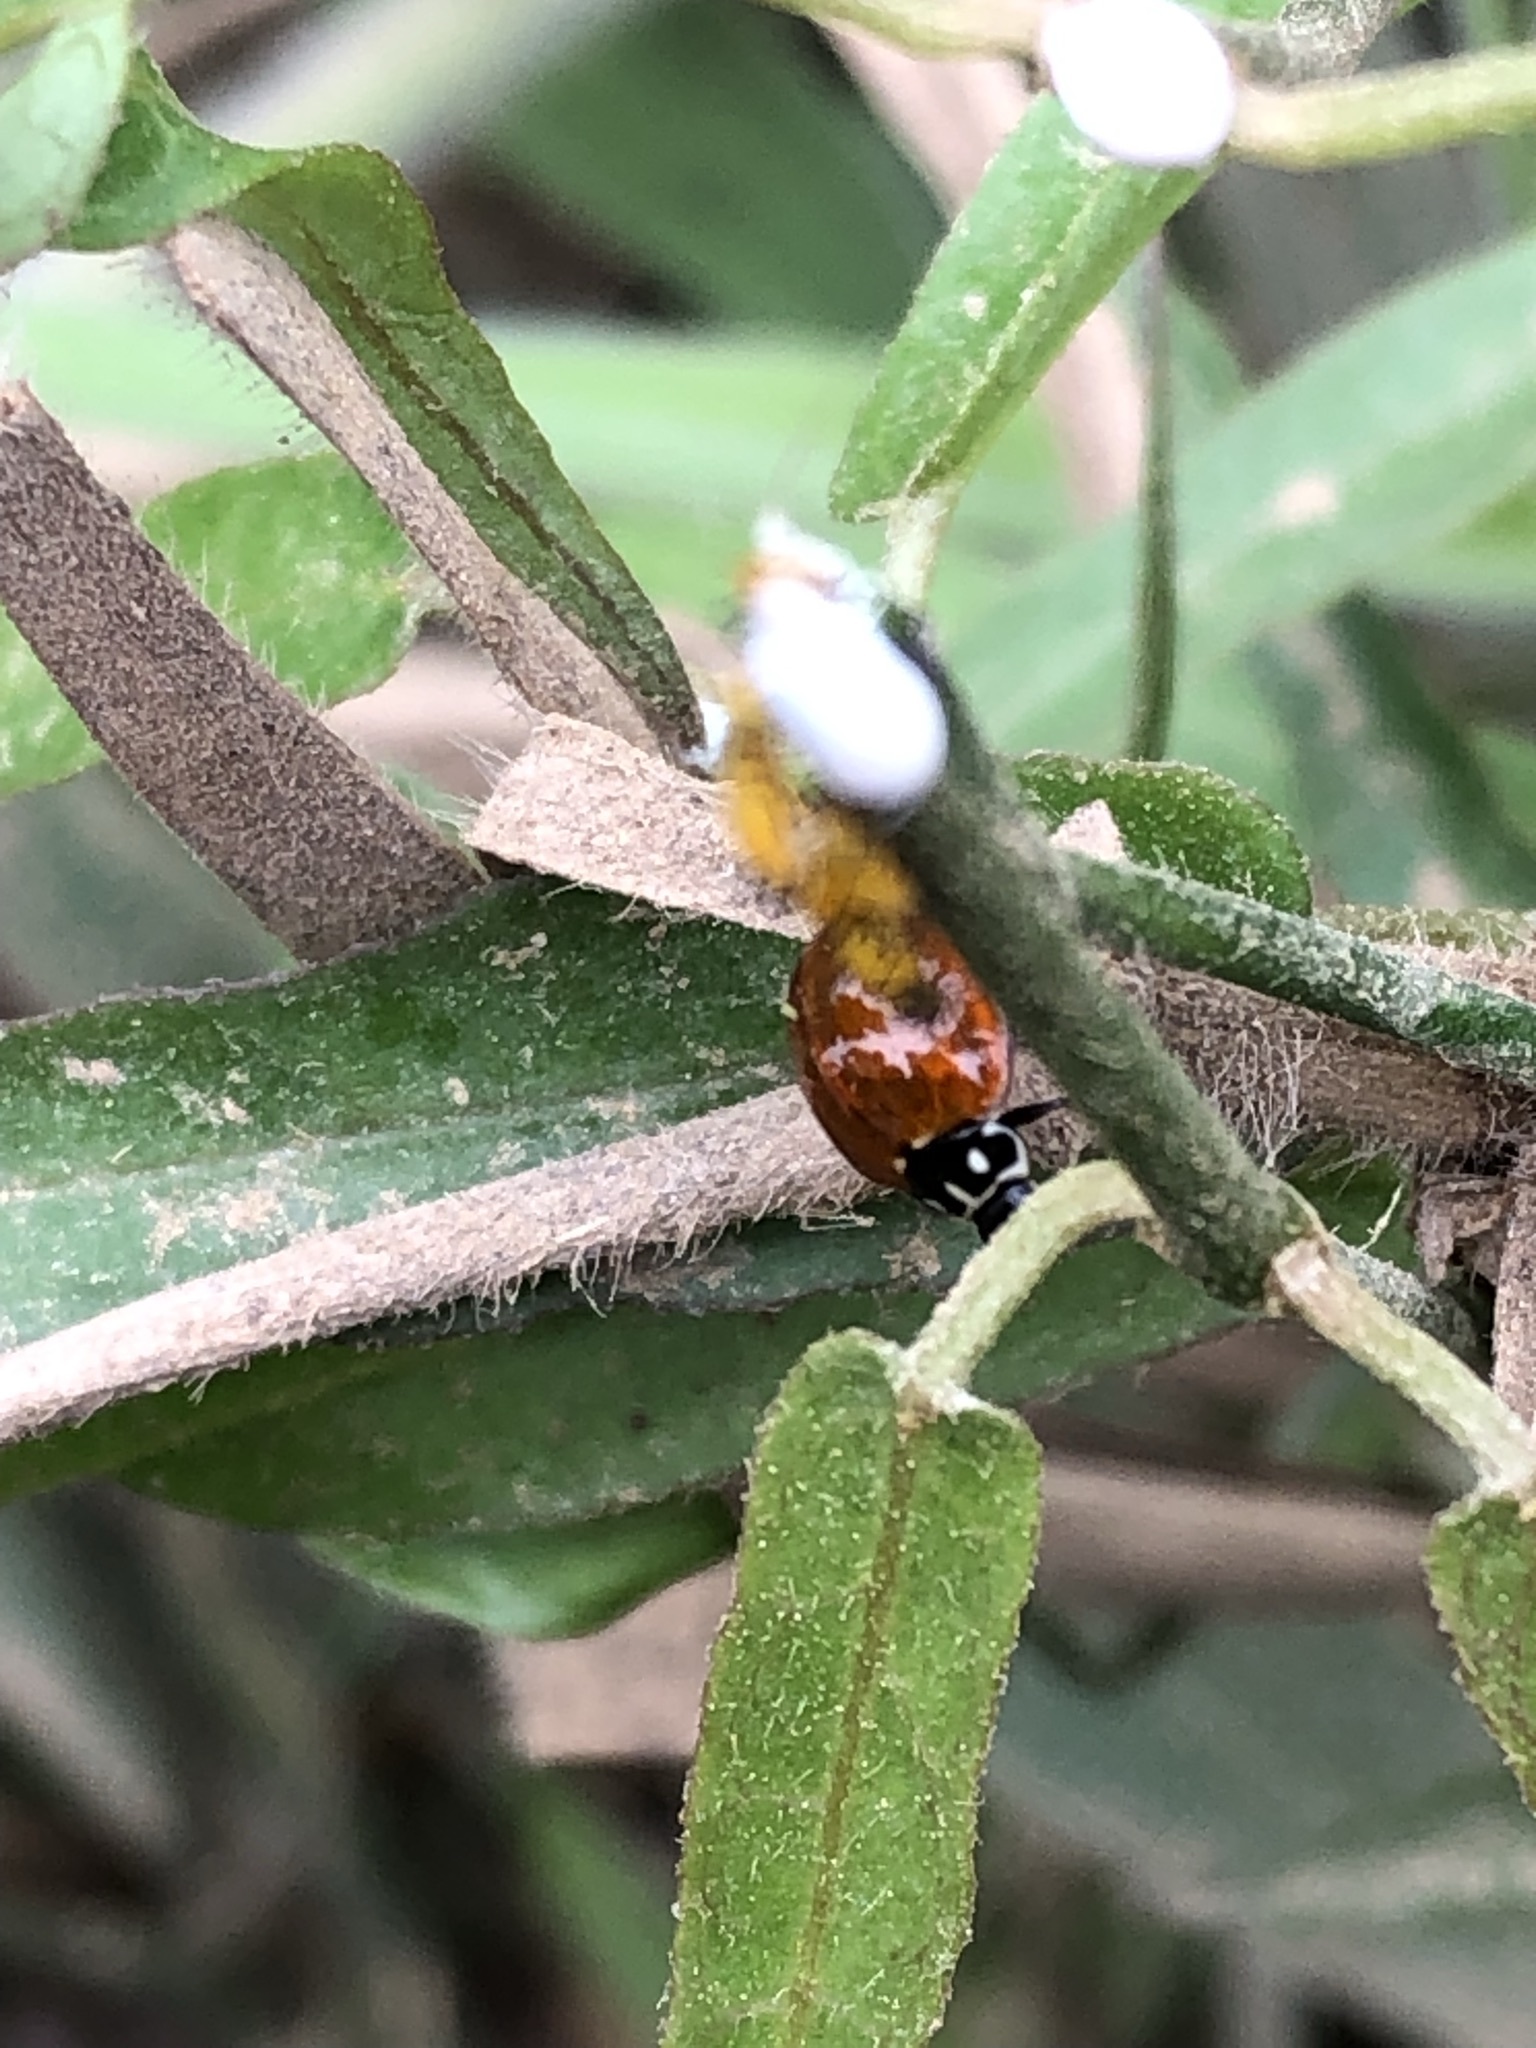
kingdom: Animalia
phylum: Arthropoda
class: Insecta
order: Coleoptera
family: Coccinellidae
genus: Cycloneda
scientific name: Cycloneda sanguinea
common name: Ladybird beetle
